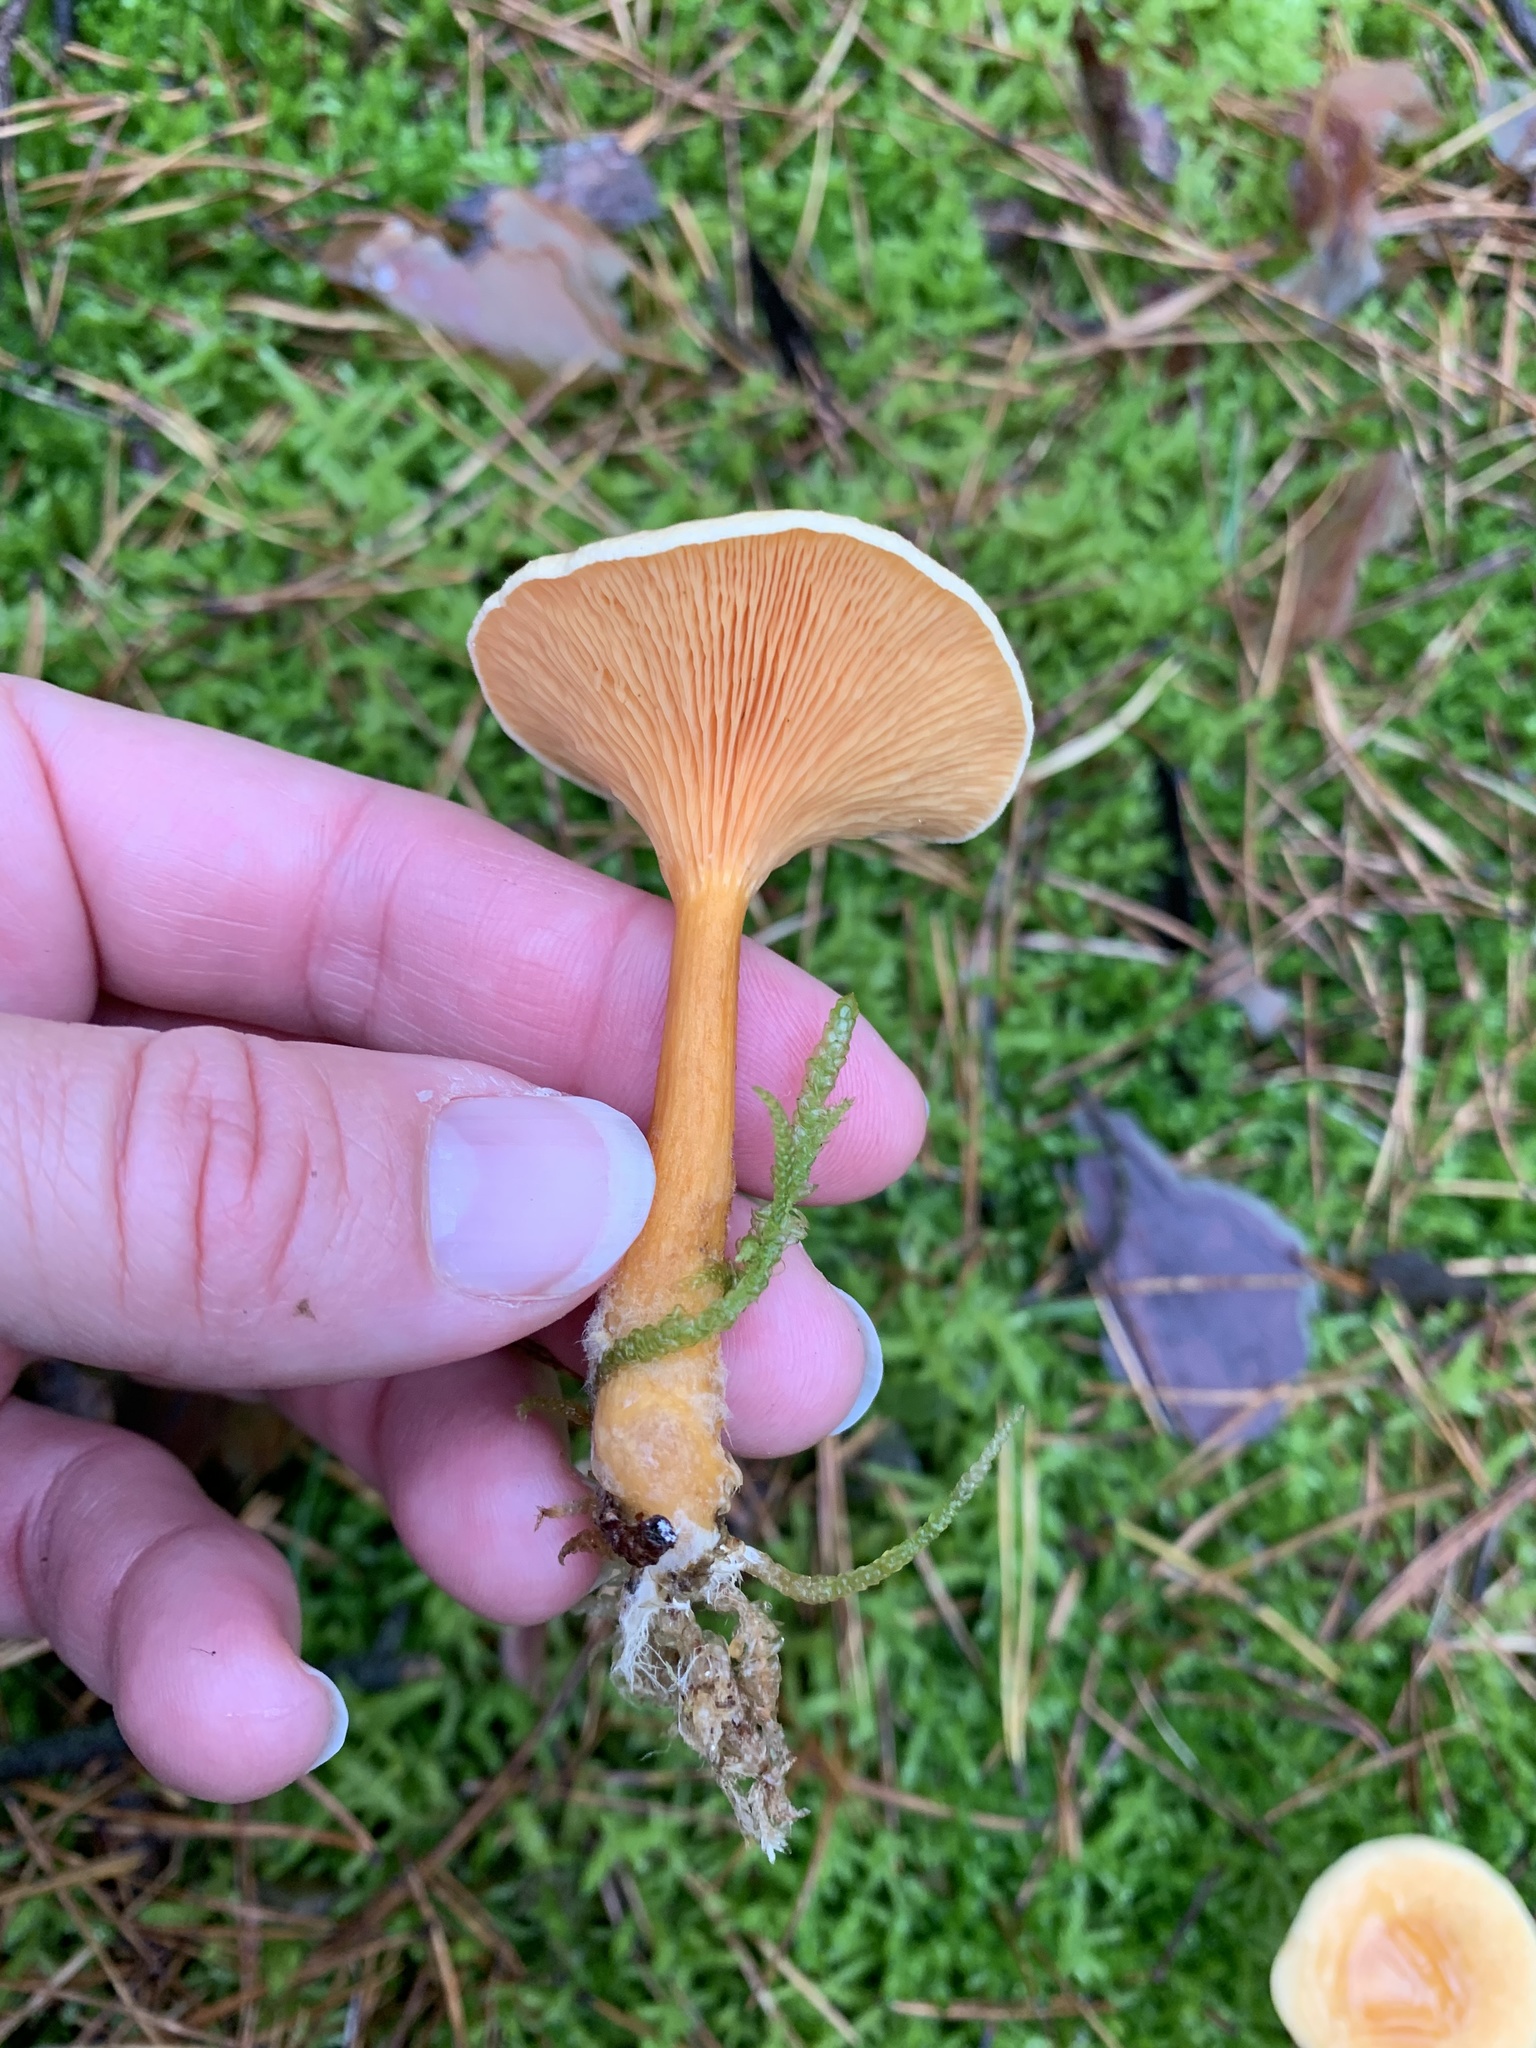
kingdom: Fungi
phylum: Basidiomycota
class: Agaricomycetes
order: Boletales
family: Hygrophoropsidaceae
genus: Hygrophoropsis
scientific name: Hygrophoropsis aurantiaca
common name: False chanterelle
